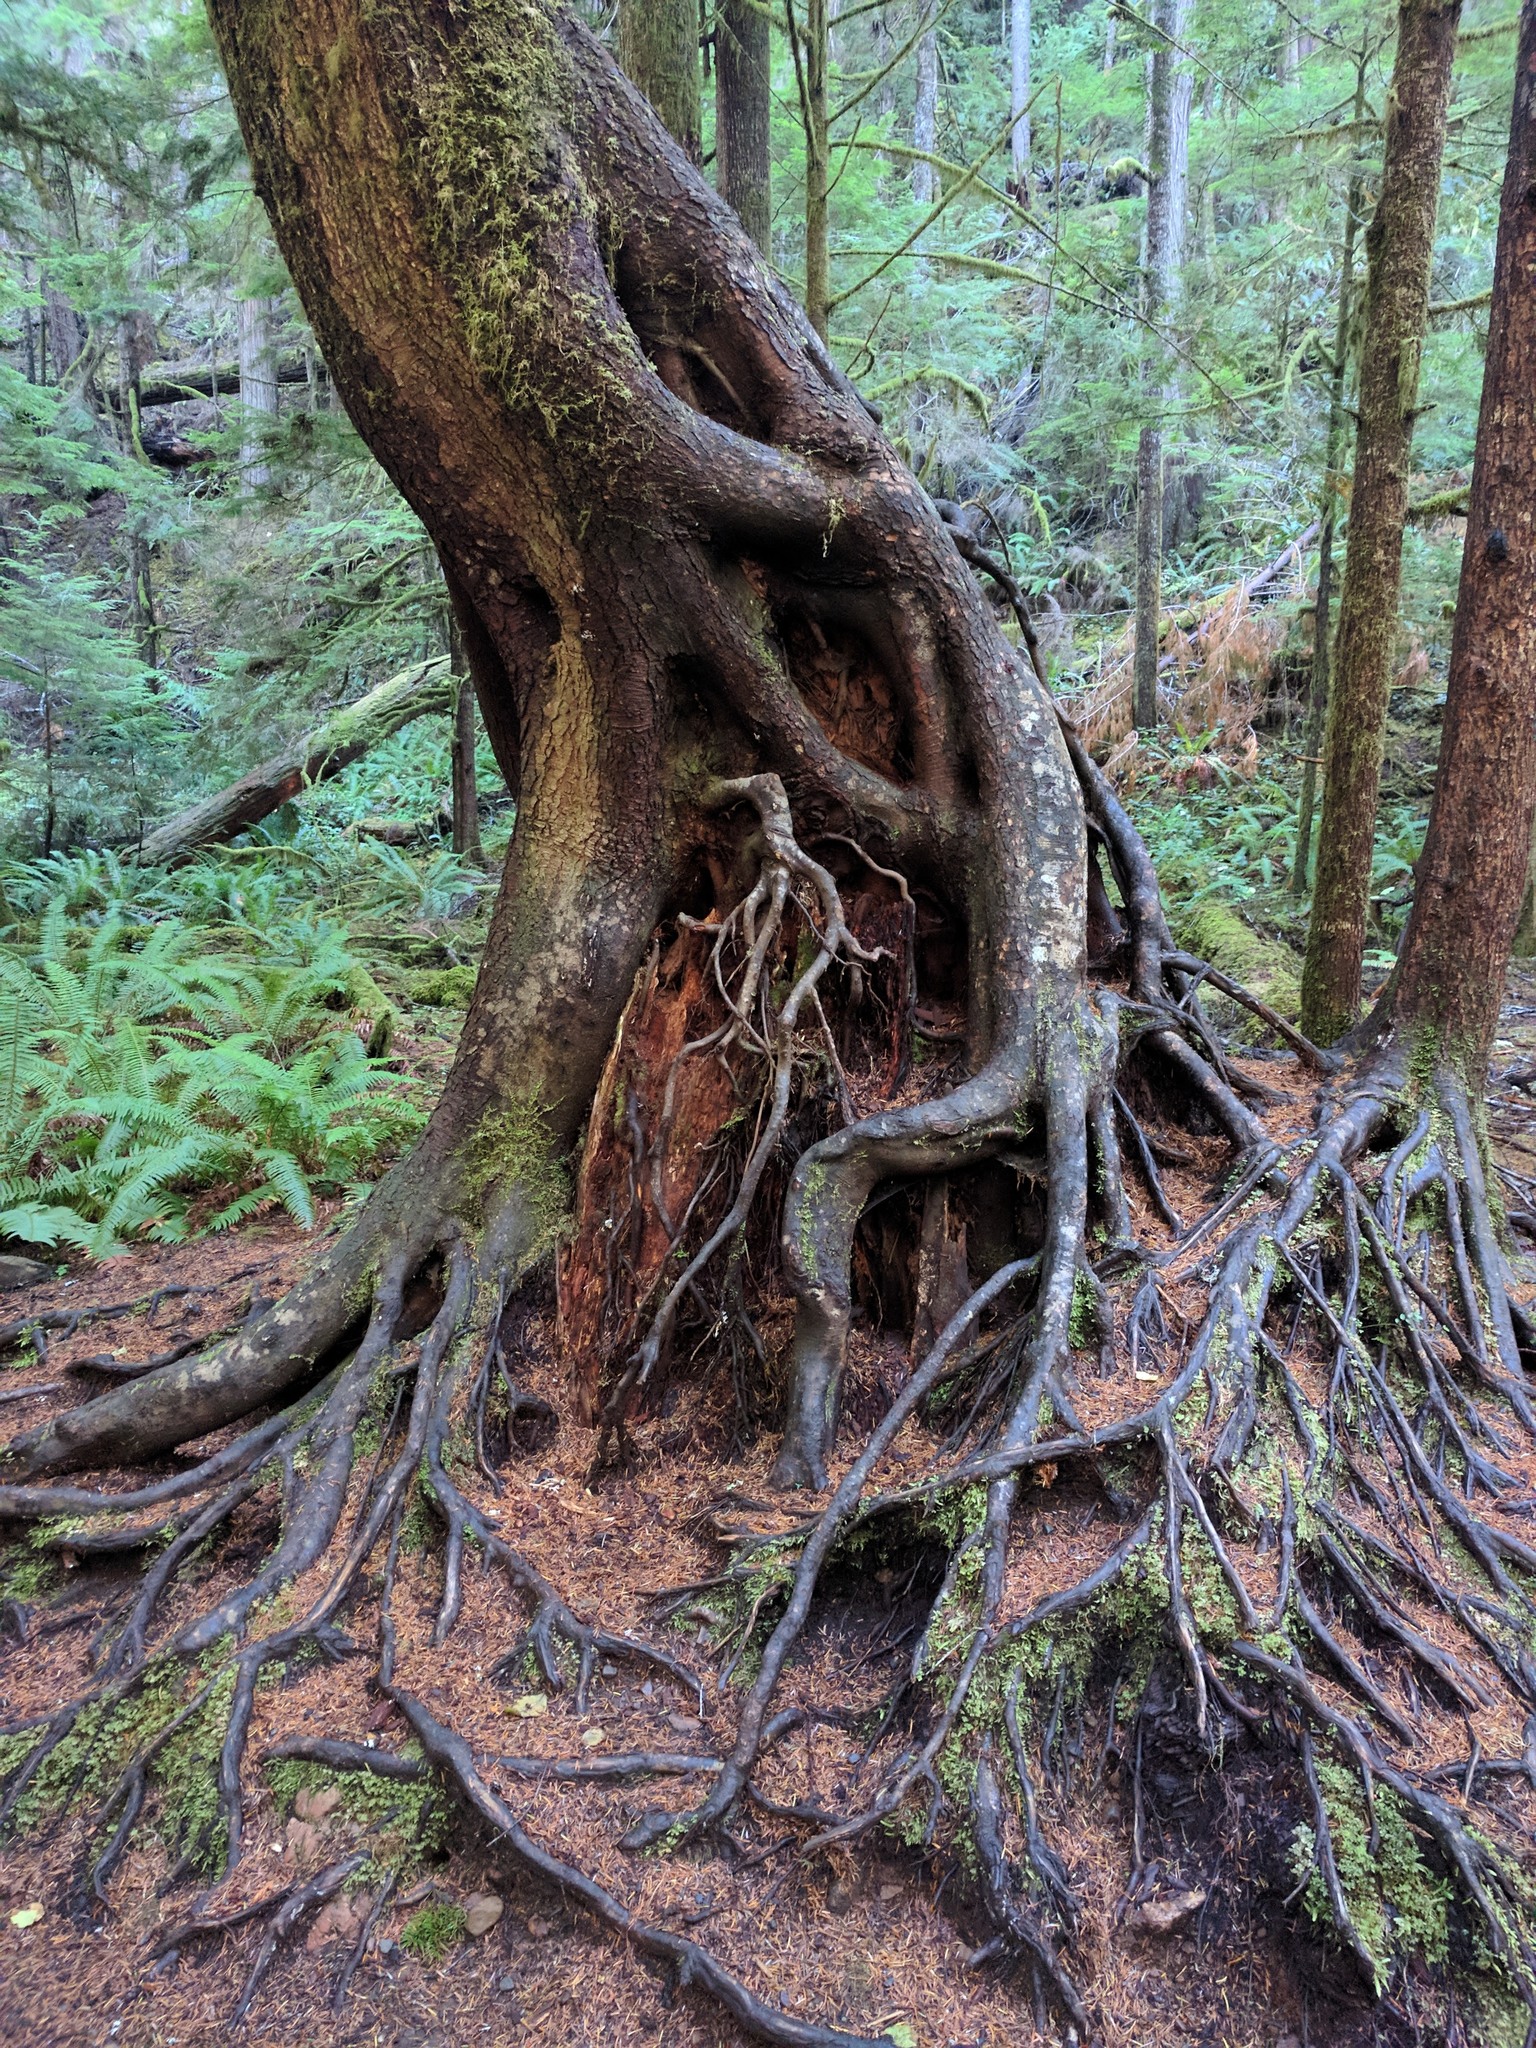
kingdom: Plantae
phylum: Tracheophyta
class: Pinopsida
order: Pinales
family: Pinaceae
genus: Tsuga
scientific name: Tsuga heterophylla
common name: Western hemlock
